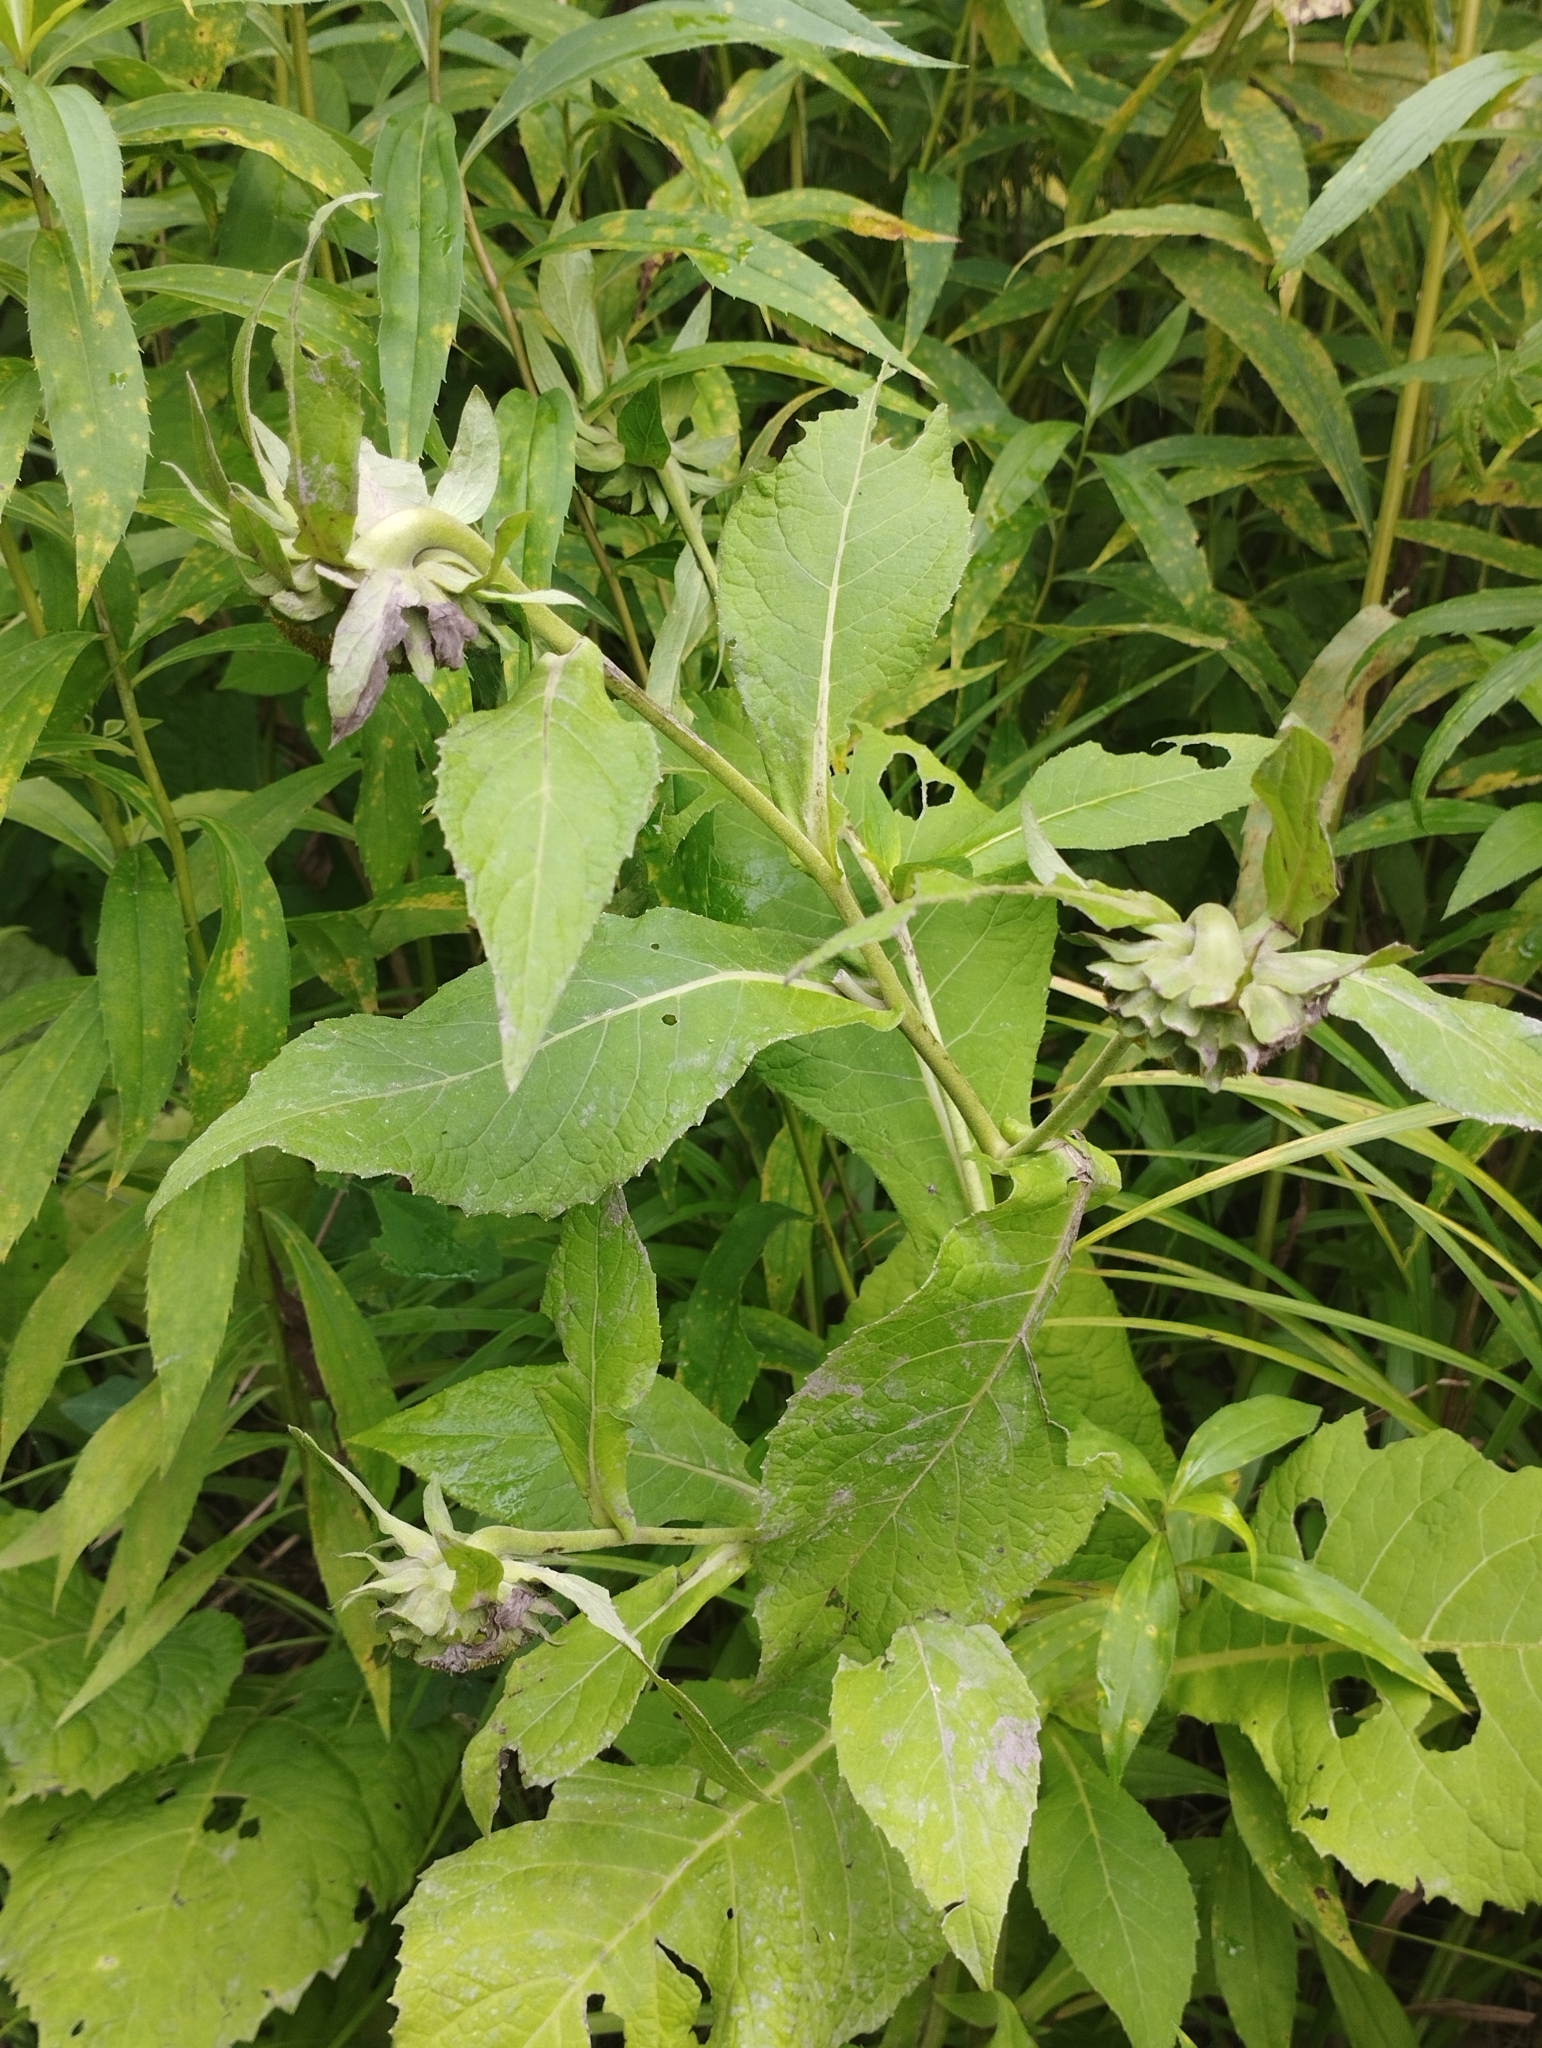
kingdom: Plantae
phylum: Tracheophyta
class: Magnoliopsida
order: Asterales
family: Asteraceae
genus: Carpesium
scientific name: Carpesium macrocephalum
